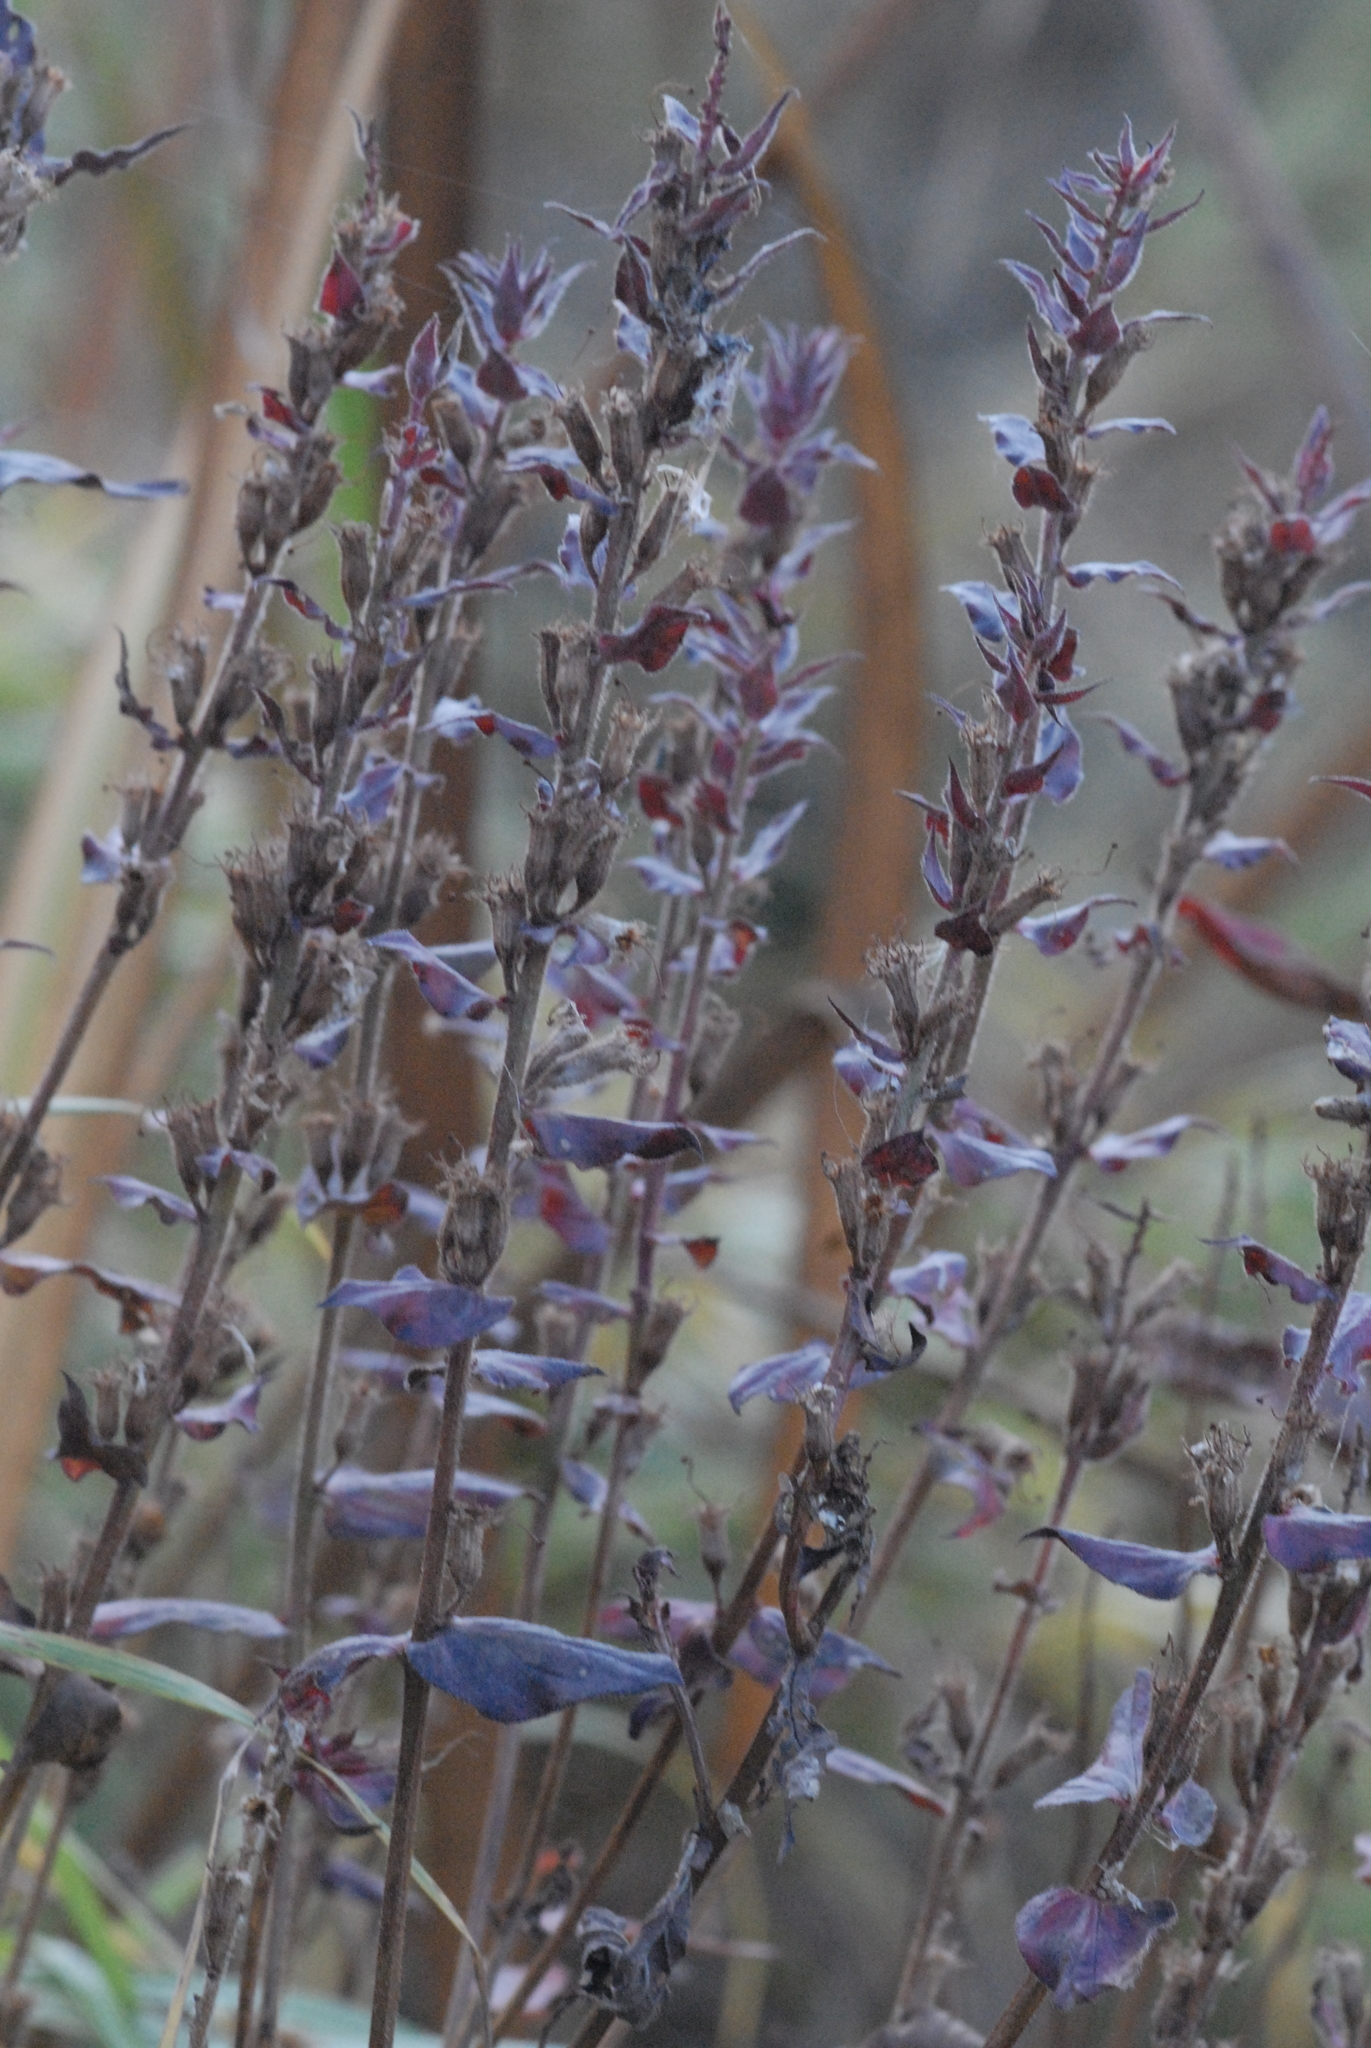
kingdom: Plantae
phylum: Tracheophyta
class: Magnoliopsida
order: Myrtales
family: Lythraceae
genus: Lythrum
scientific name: Lythrum salicaria
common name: Purple loosestrife
